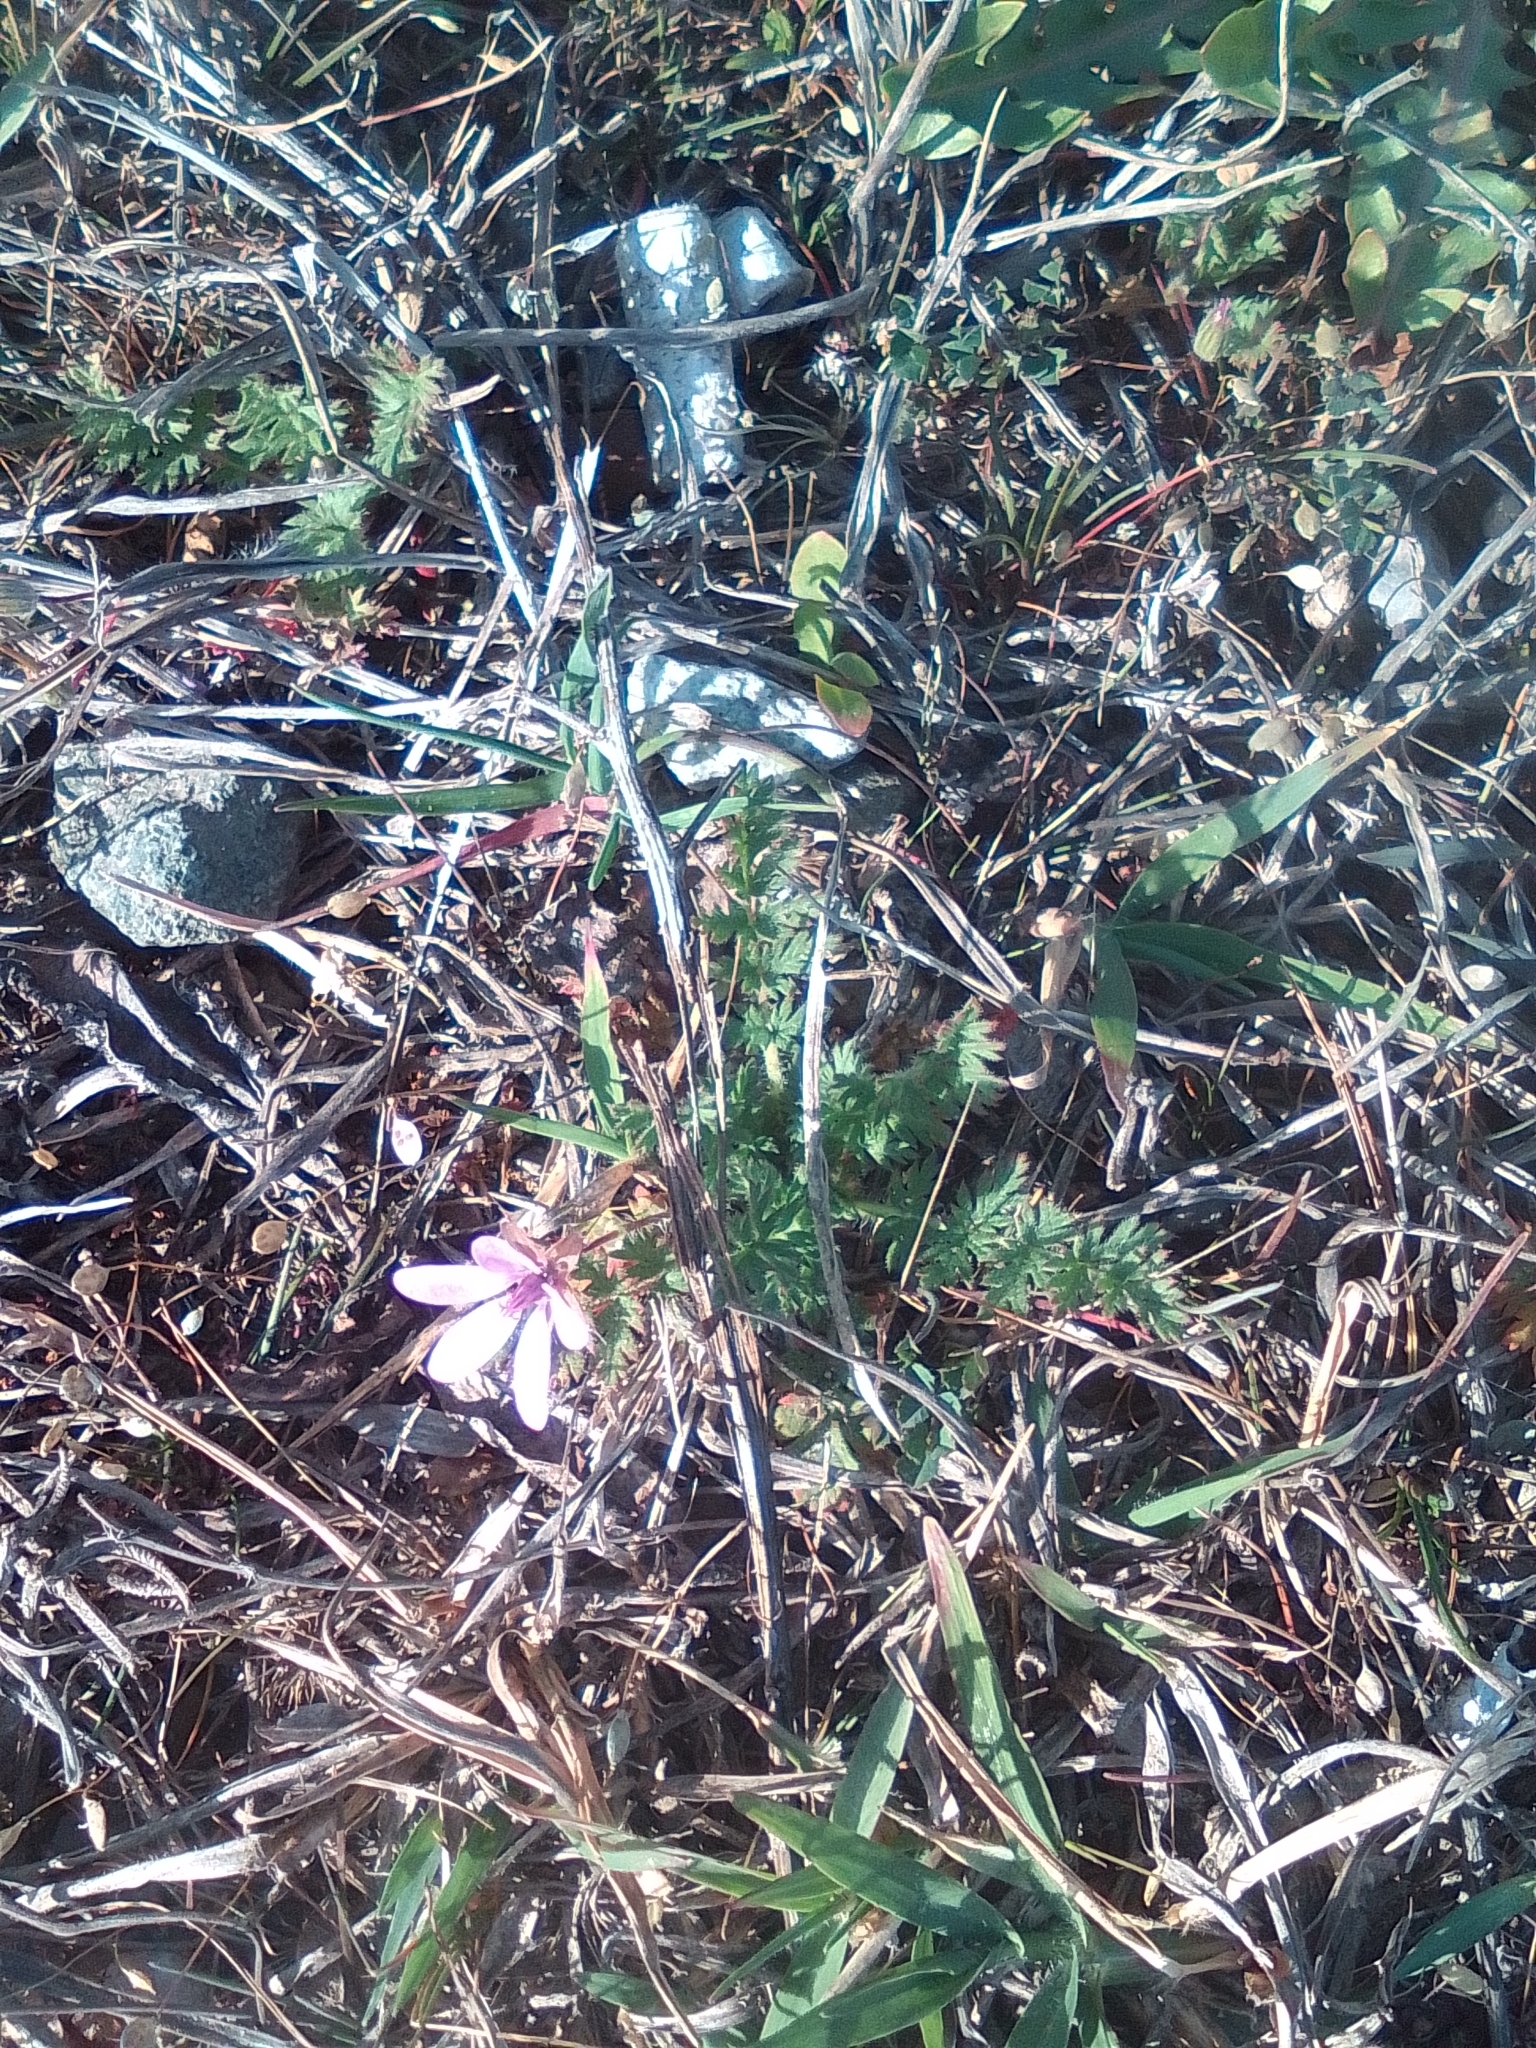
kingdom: Plantae
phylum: Tracheophyta
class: Magnoliopsida
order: Geraniales
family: Geraniaceae
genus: Erodium
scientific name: Erodium cicutarium
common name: Common stork's-bill
